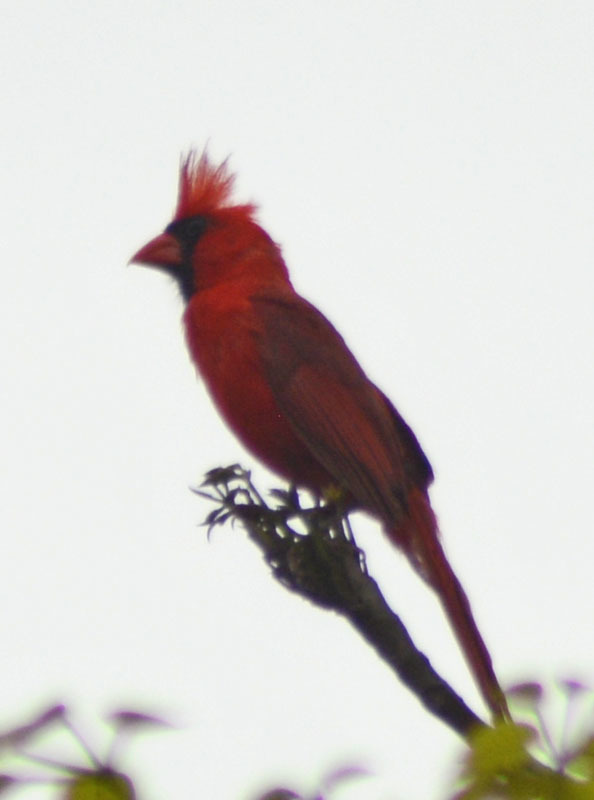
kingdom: Animalia
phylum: Chordata
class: Aves
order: Passeriformes
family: Cardinalidae
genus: Cardinalis
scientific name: Cardinalis cardinalis
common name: Northern cardinal
